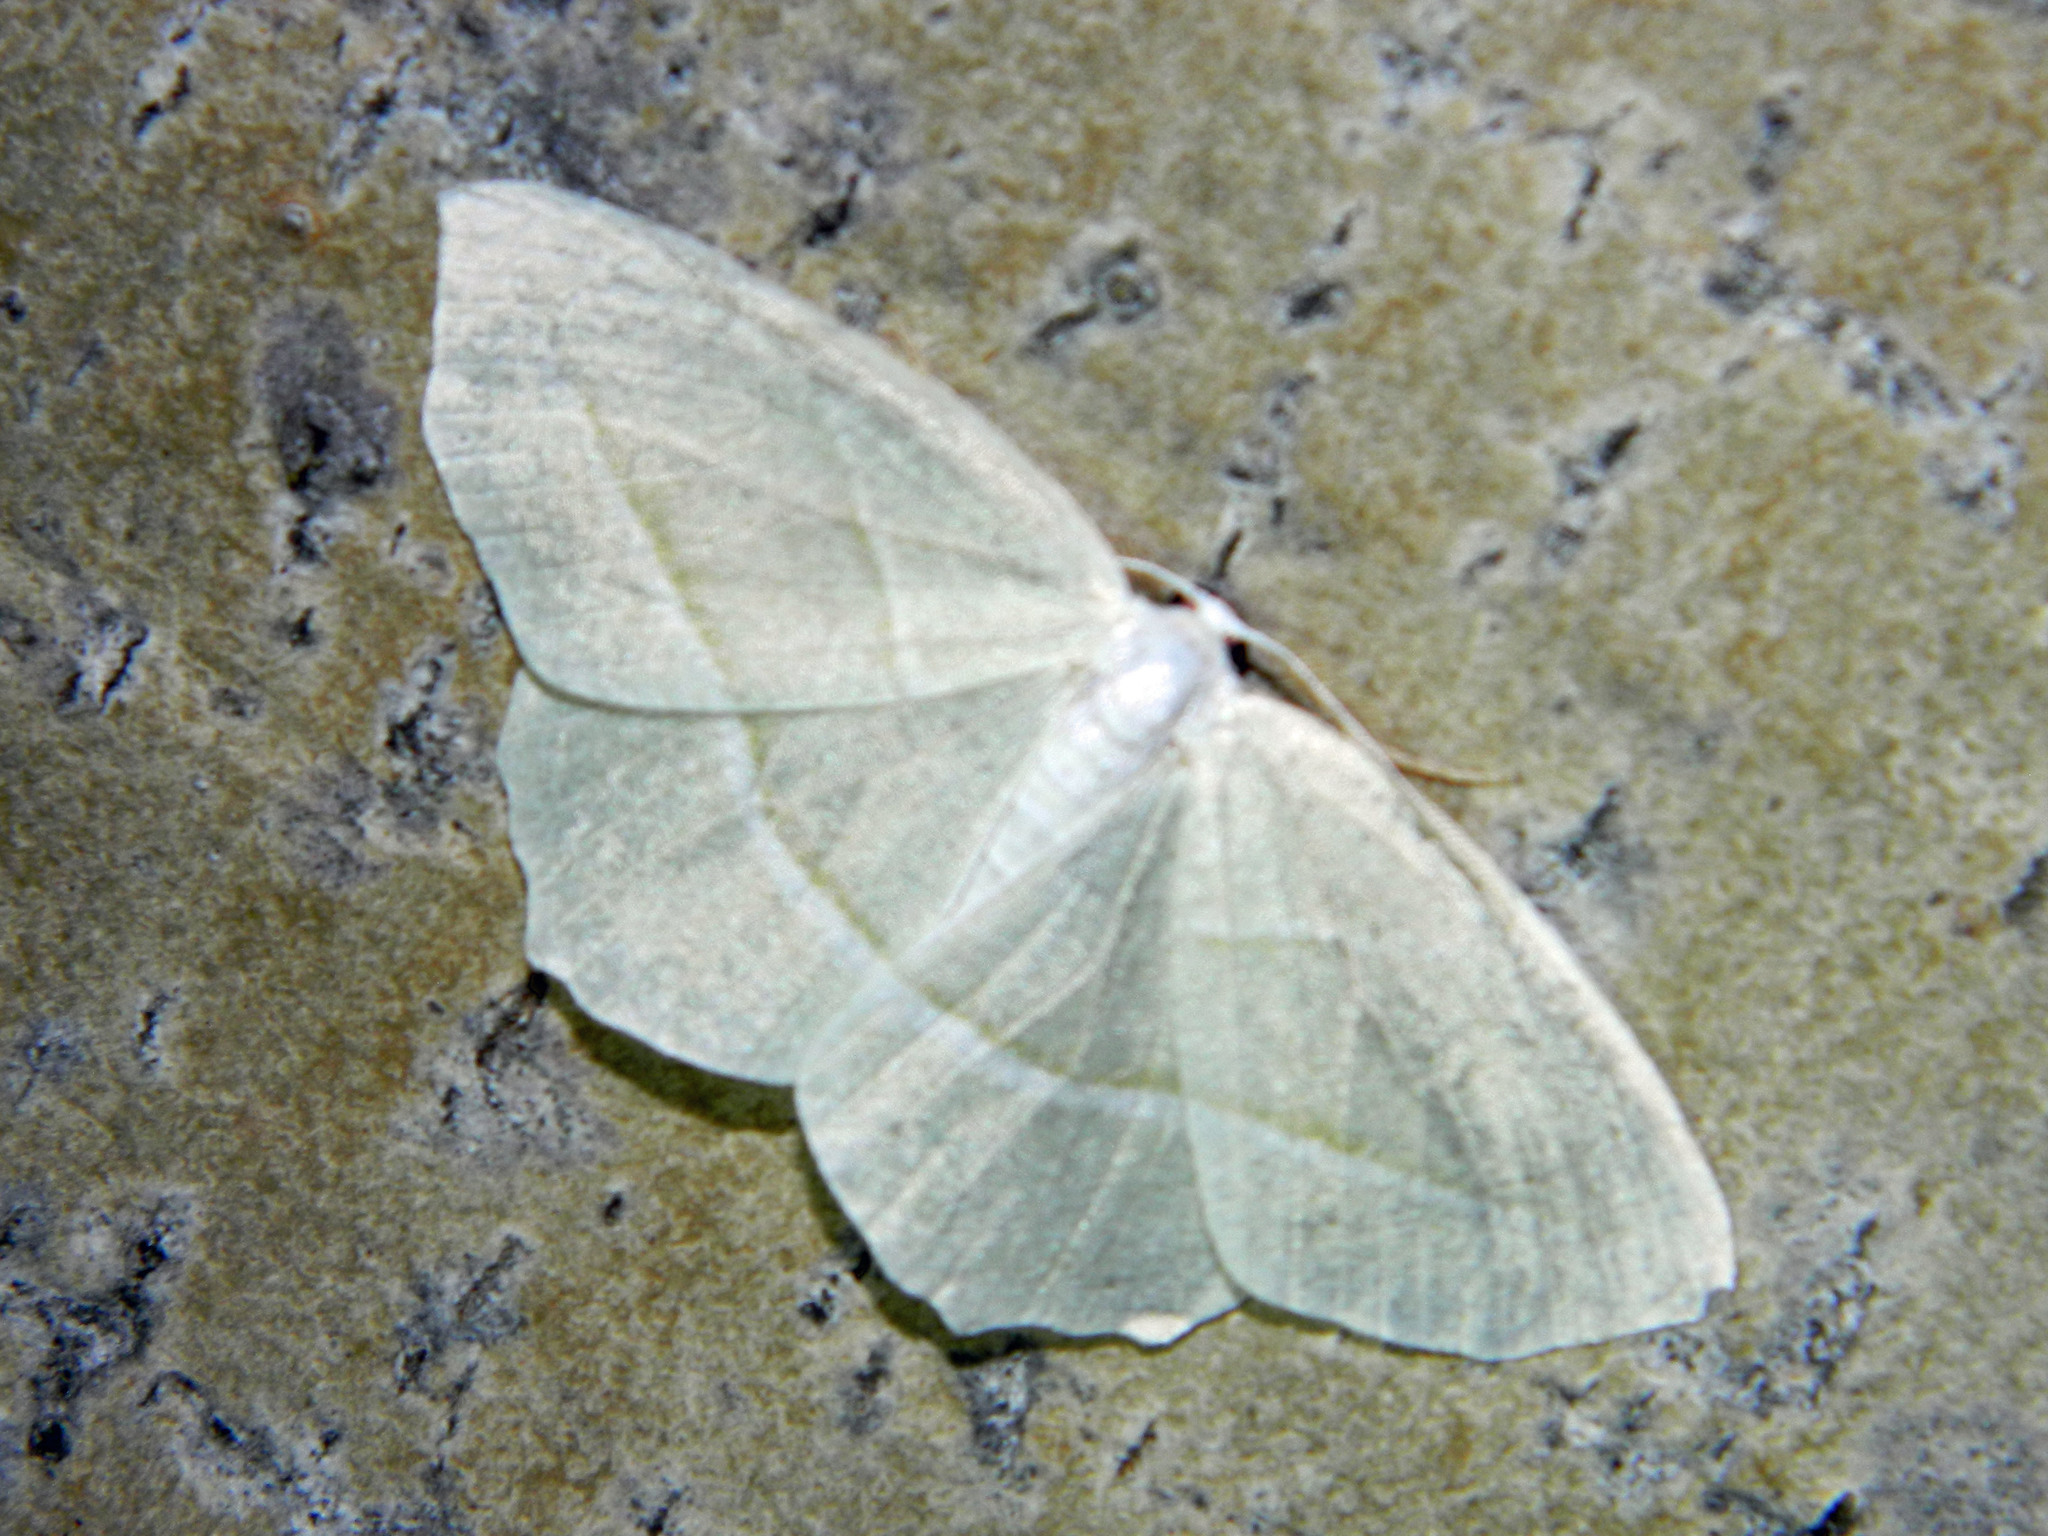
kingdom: Animalia
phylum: Arthropoda
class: Insecta
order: Lepidoptera
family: Geometridae
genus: Campaea
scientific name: Campaea perlata
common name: Fringed looper
